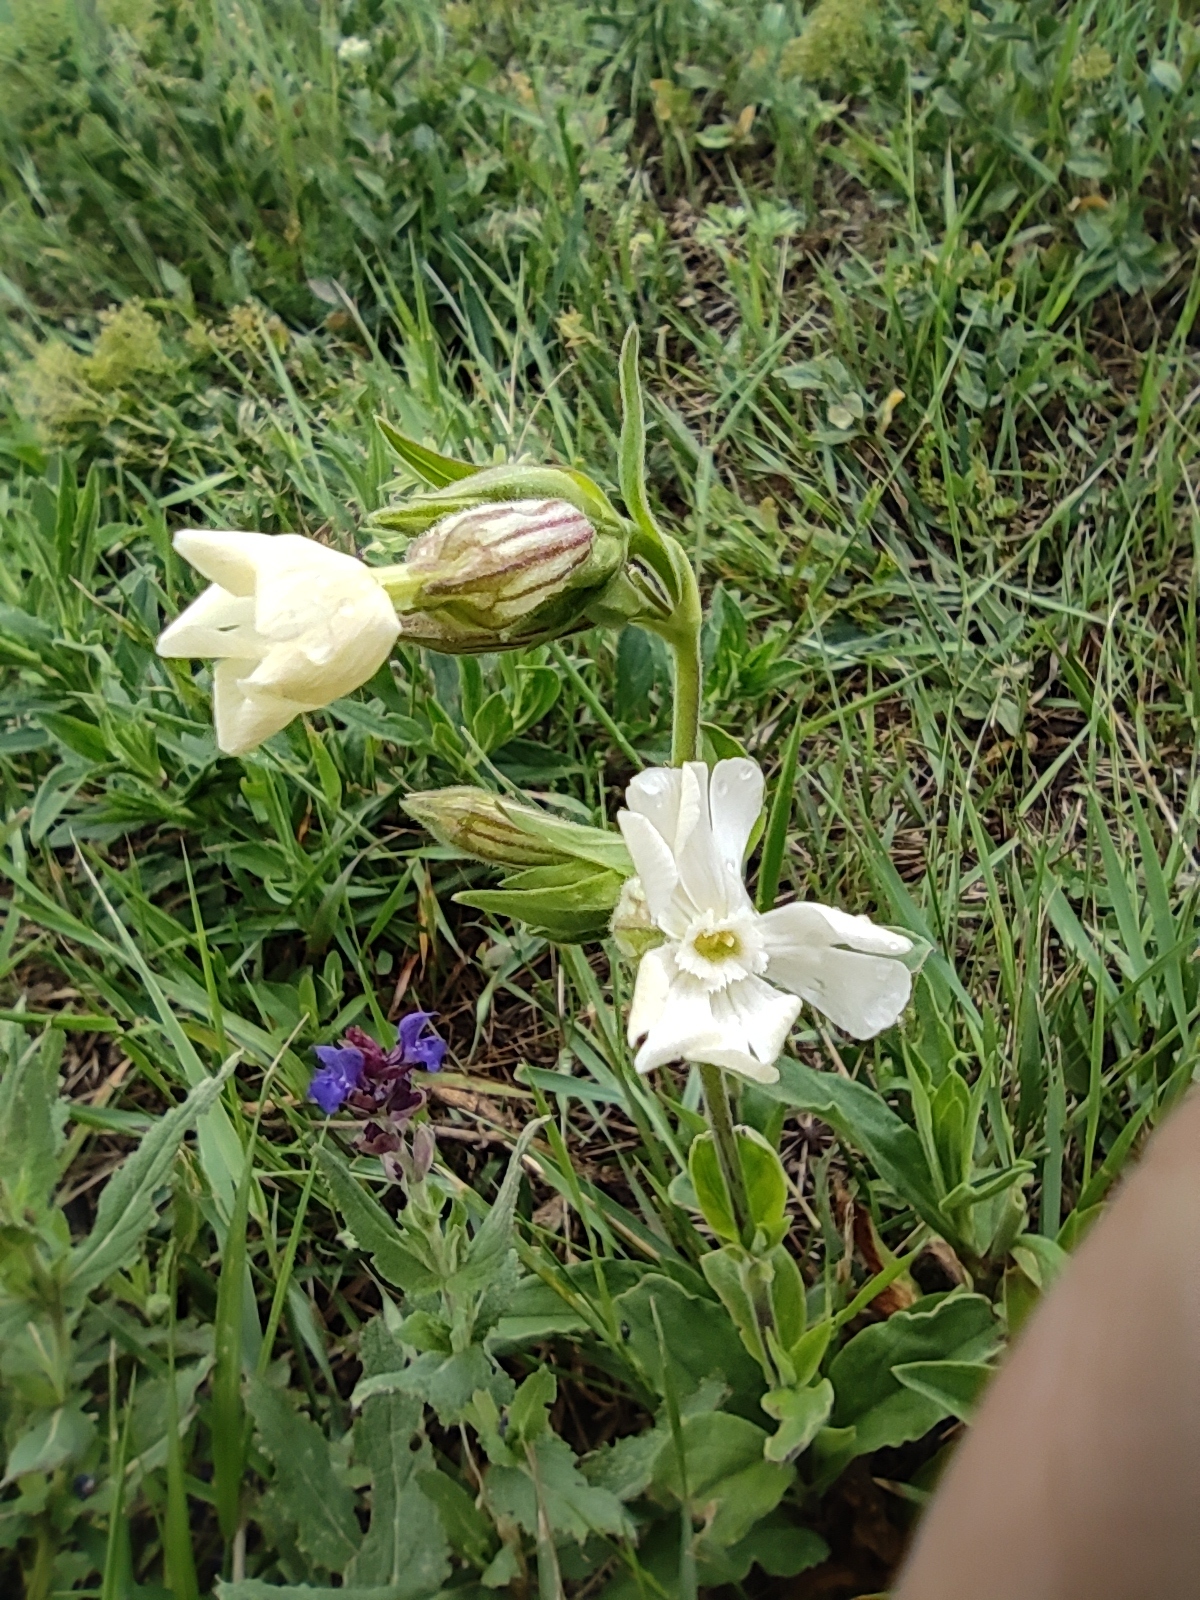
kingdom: Plantae
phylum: Tracheophyta
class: Magnoliopsida
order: Caryophyllales
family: Caryophyllaceae
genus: Silene
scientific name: Silene latifolia
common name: White campion
